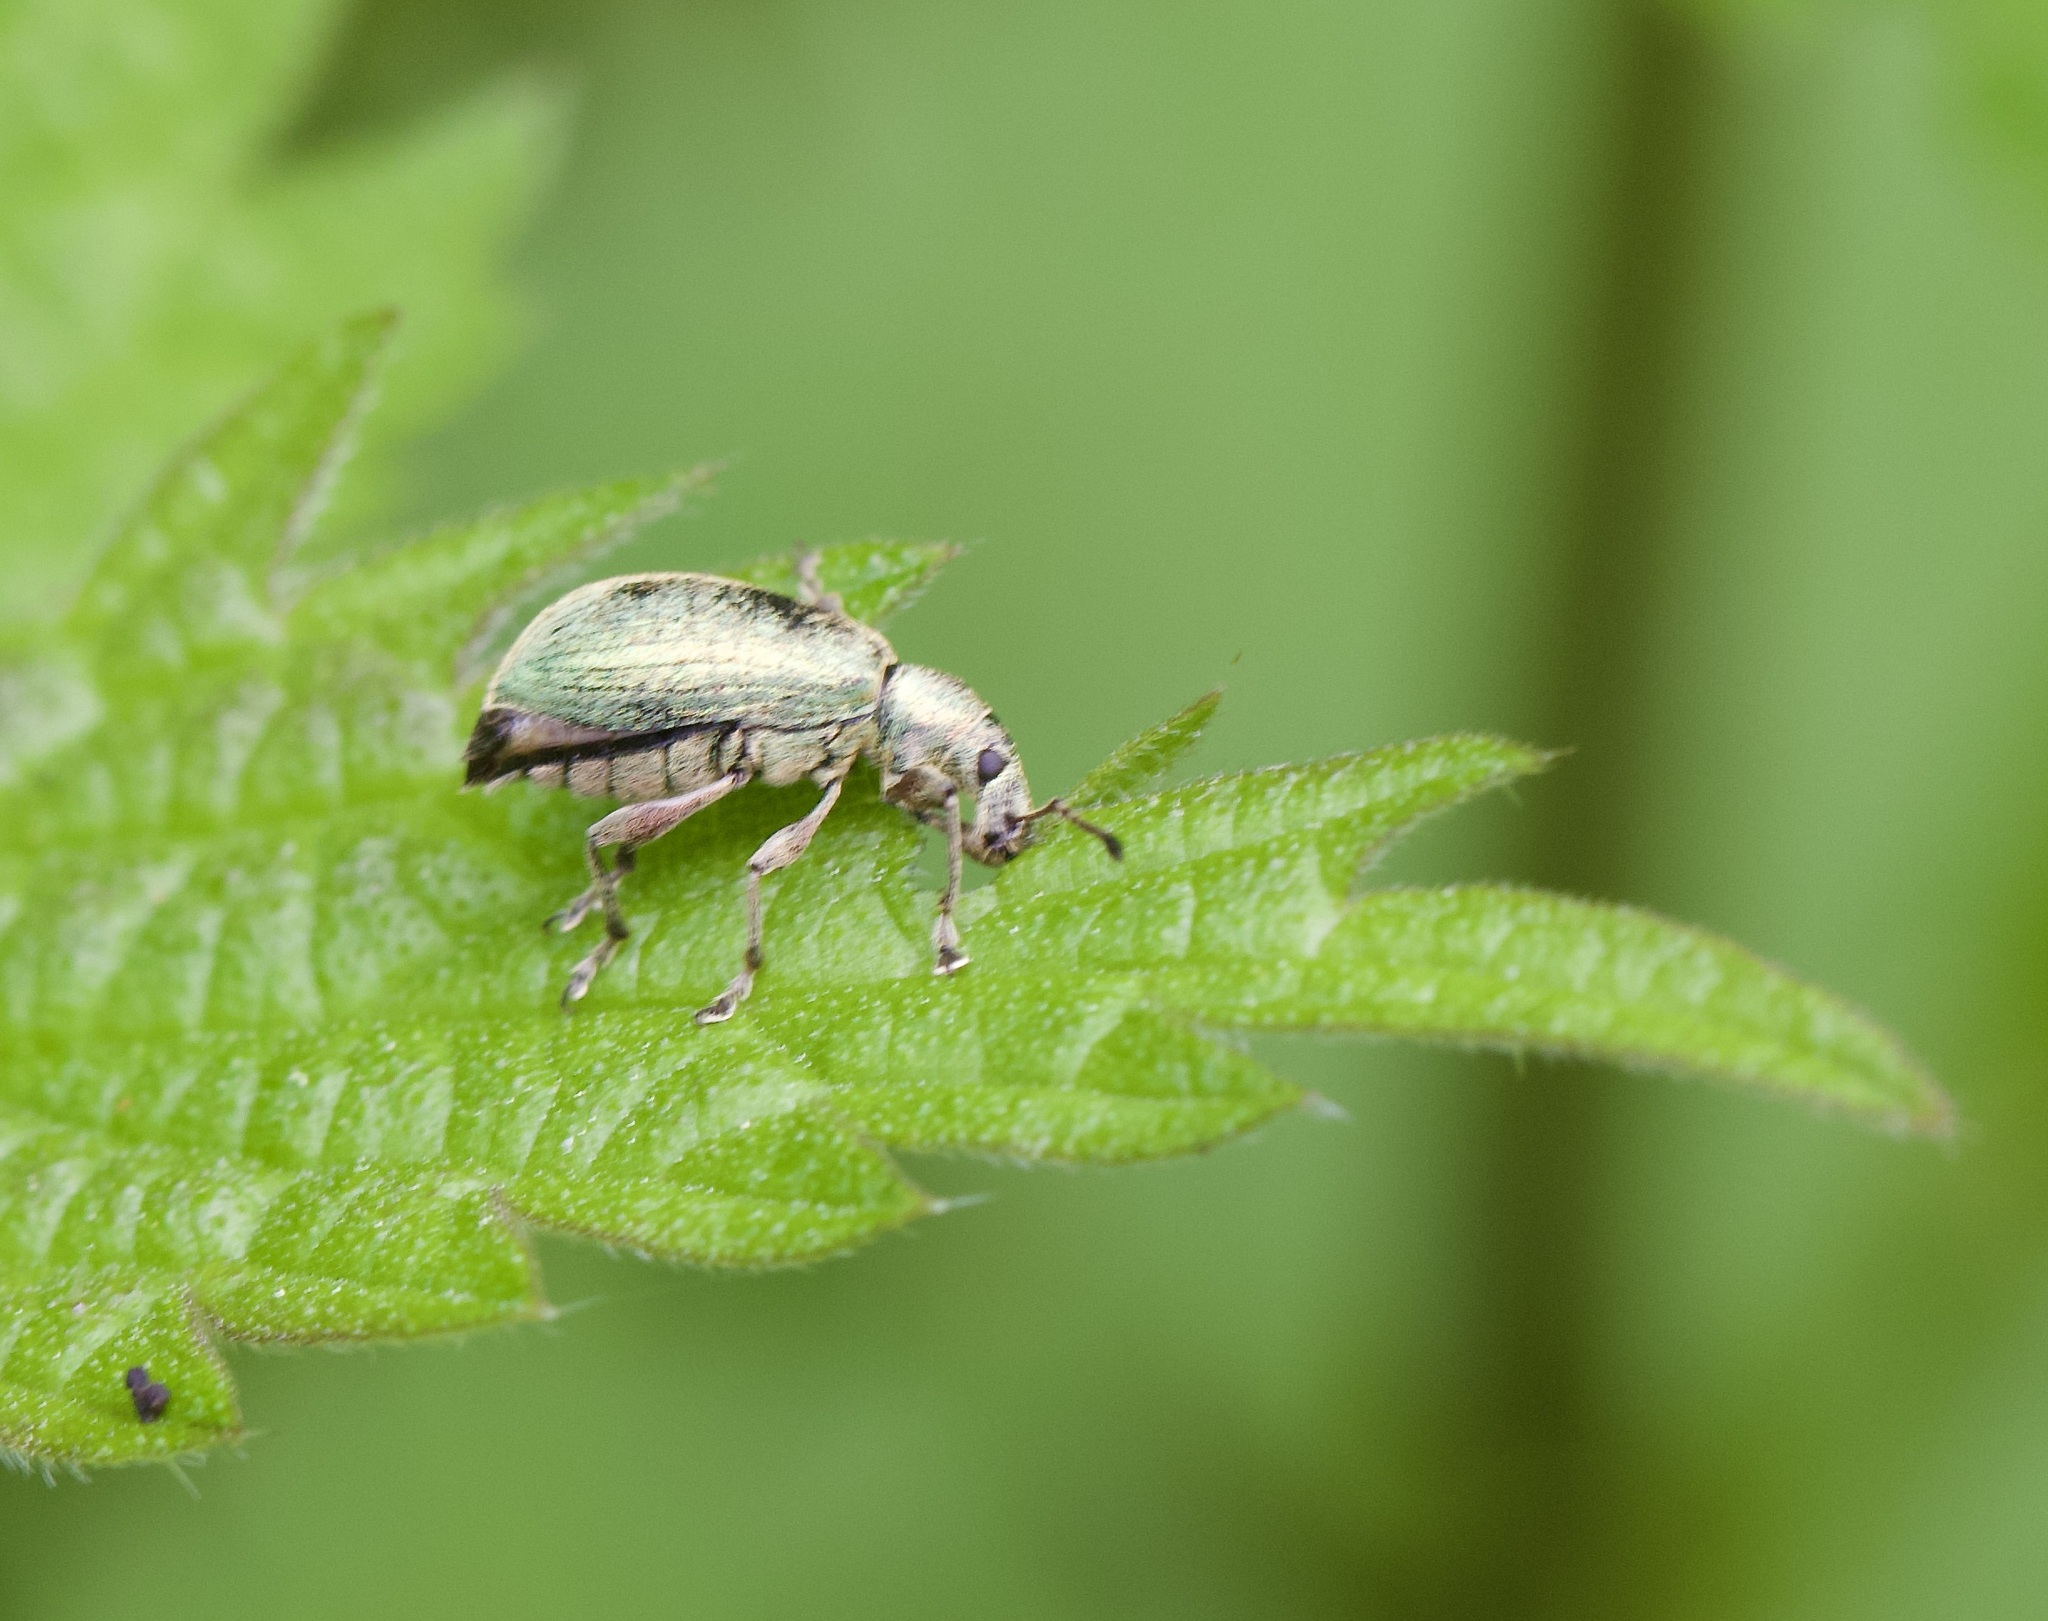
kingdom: Animalia
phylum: Arthropoda
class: Insecta
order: Coleoptera
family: Curculionidae
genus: Phyllobius
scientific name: Phyllobius pomaceus
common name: Green nettle weevil
